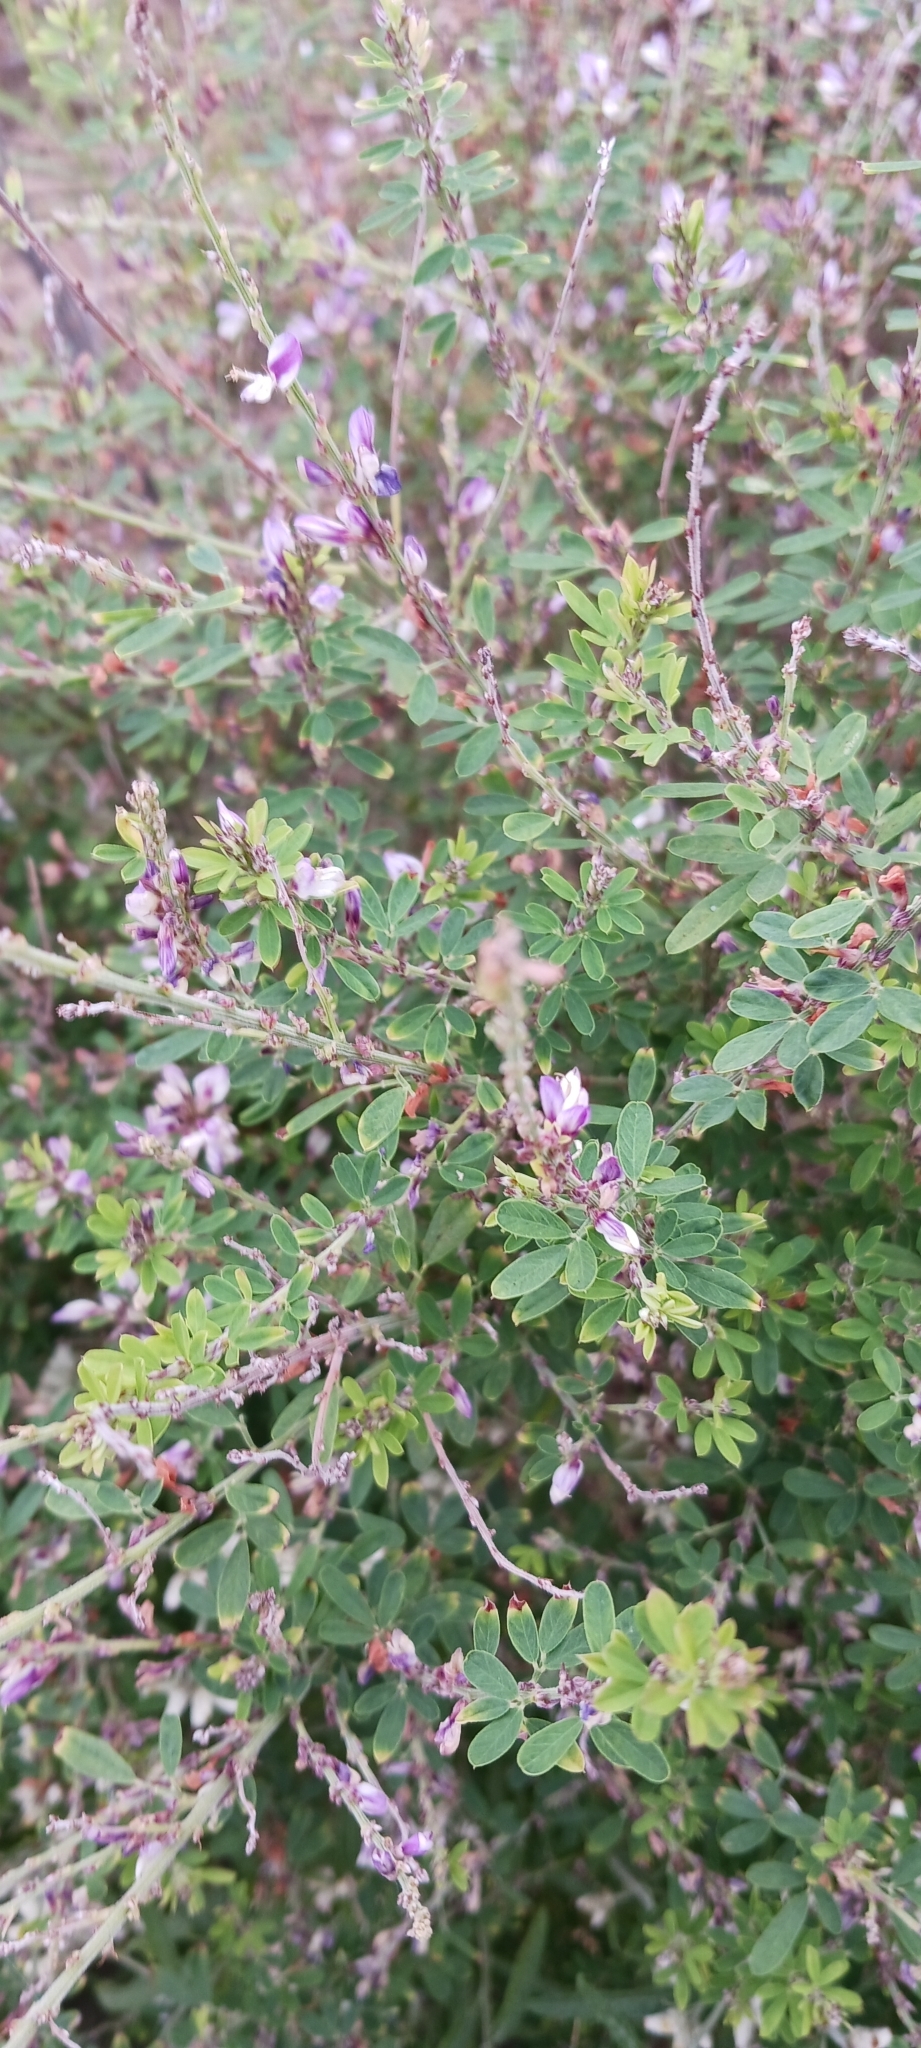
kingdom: Plantae
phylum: Tracheophyta
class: Magnoliopsida
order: Fabales
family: Fabaceae
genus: Lespedeza
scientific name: Lespedeza cuneata
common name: Chinese bush-clover
